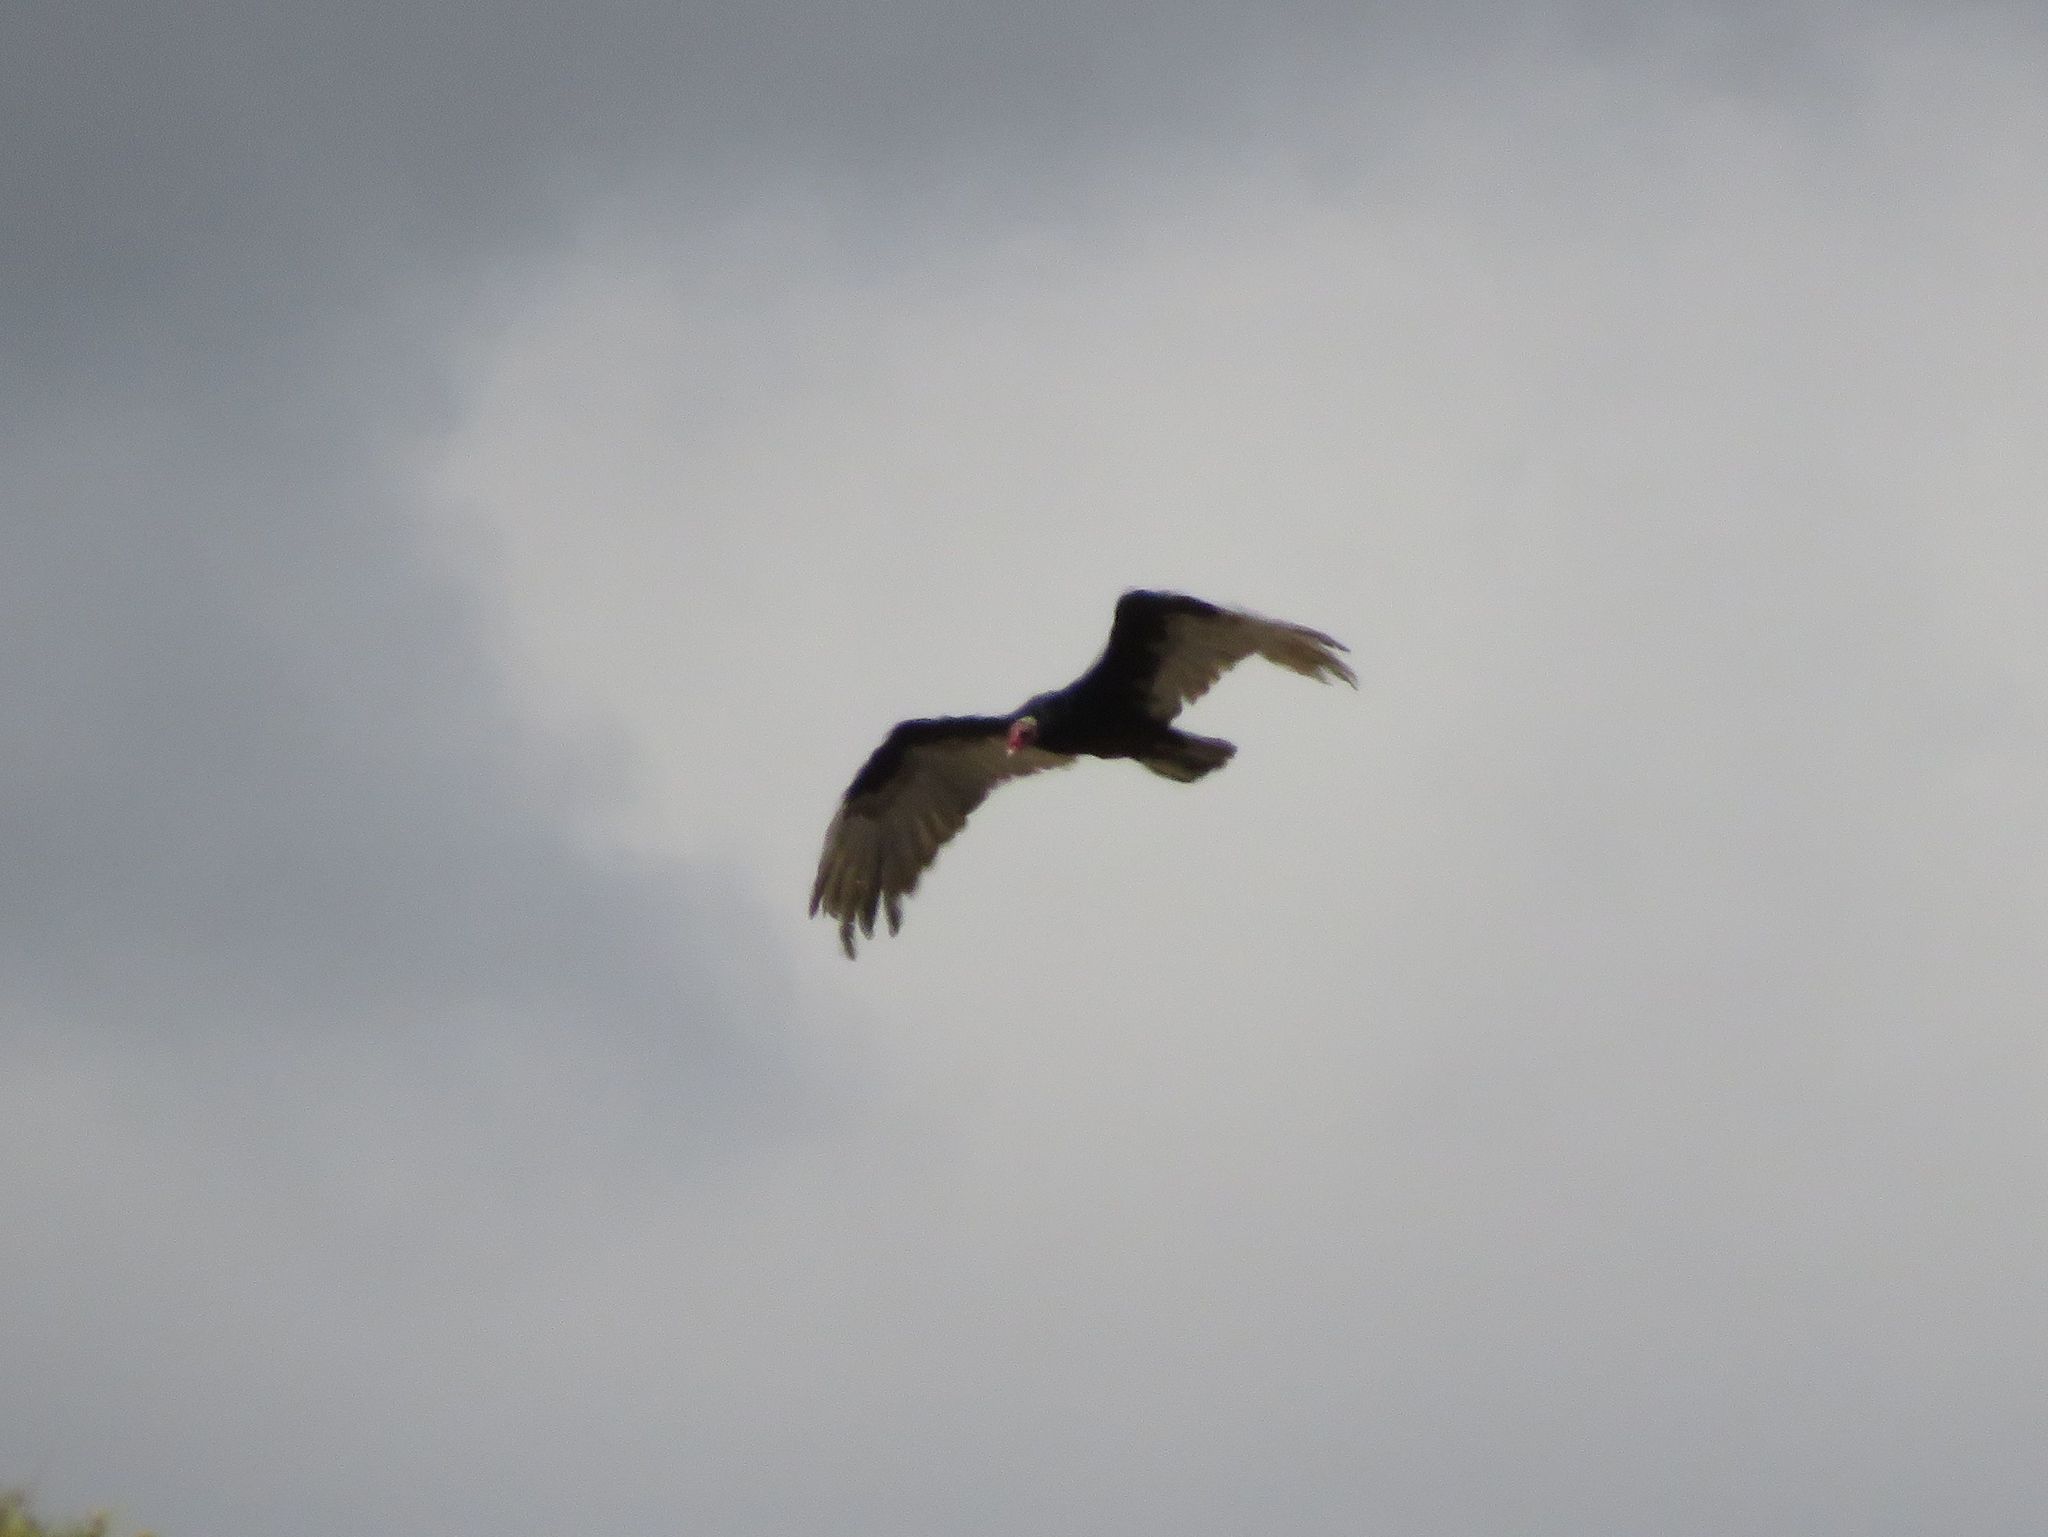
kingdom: Animalia
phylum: Chordata
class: Aves
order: Accipitriformes
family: Cathartidae
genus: Cathartes
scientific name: Cathartes aura
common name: Turkey vulture
